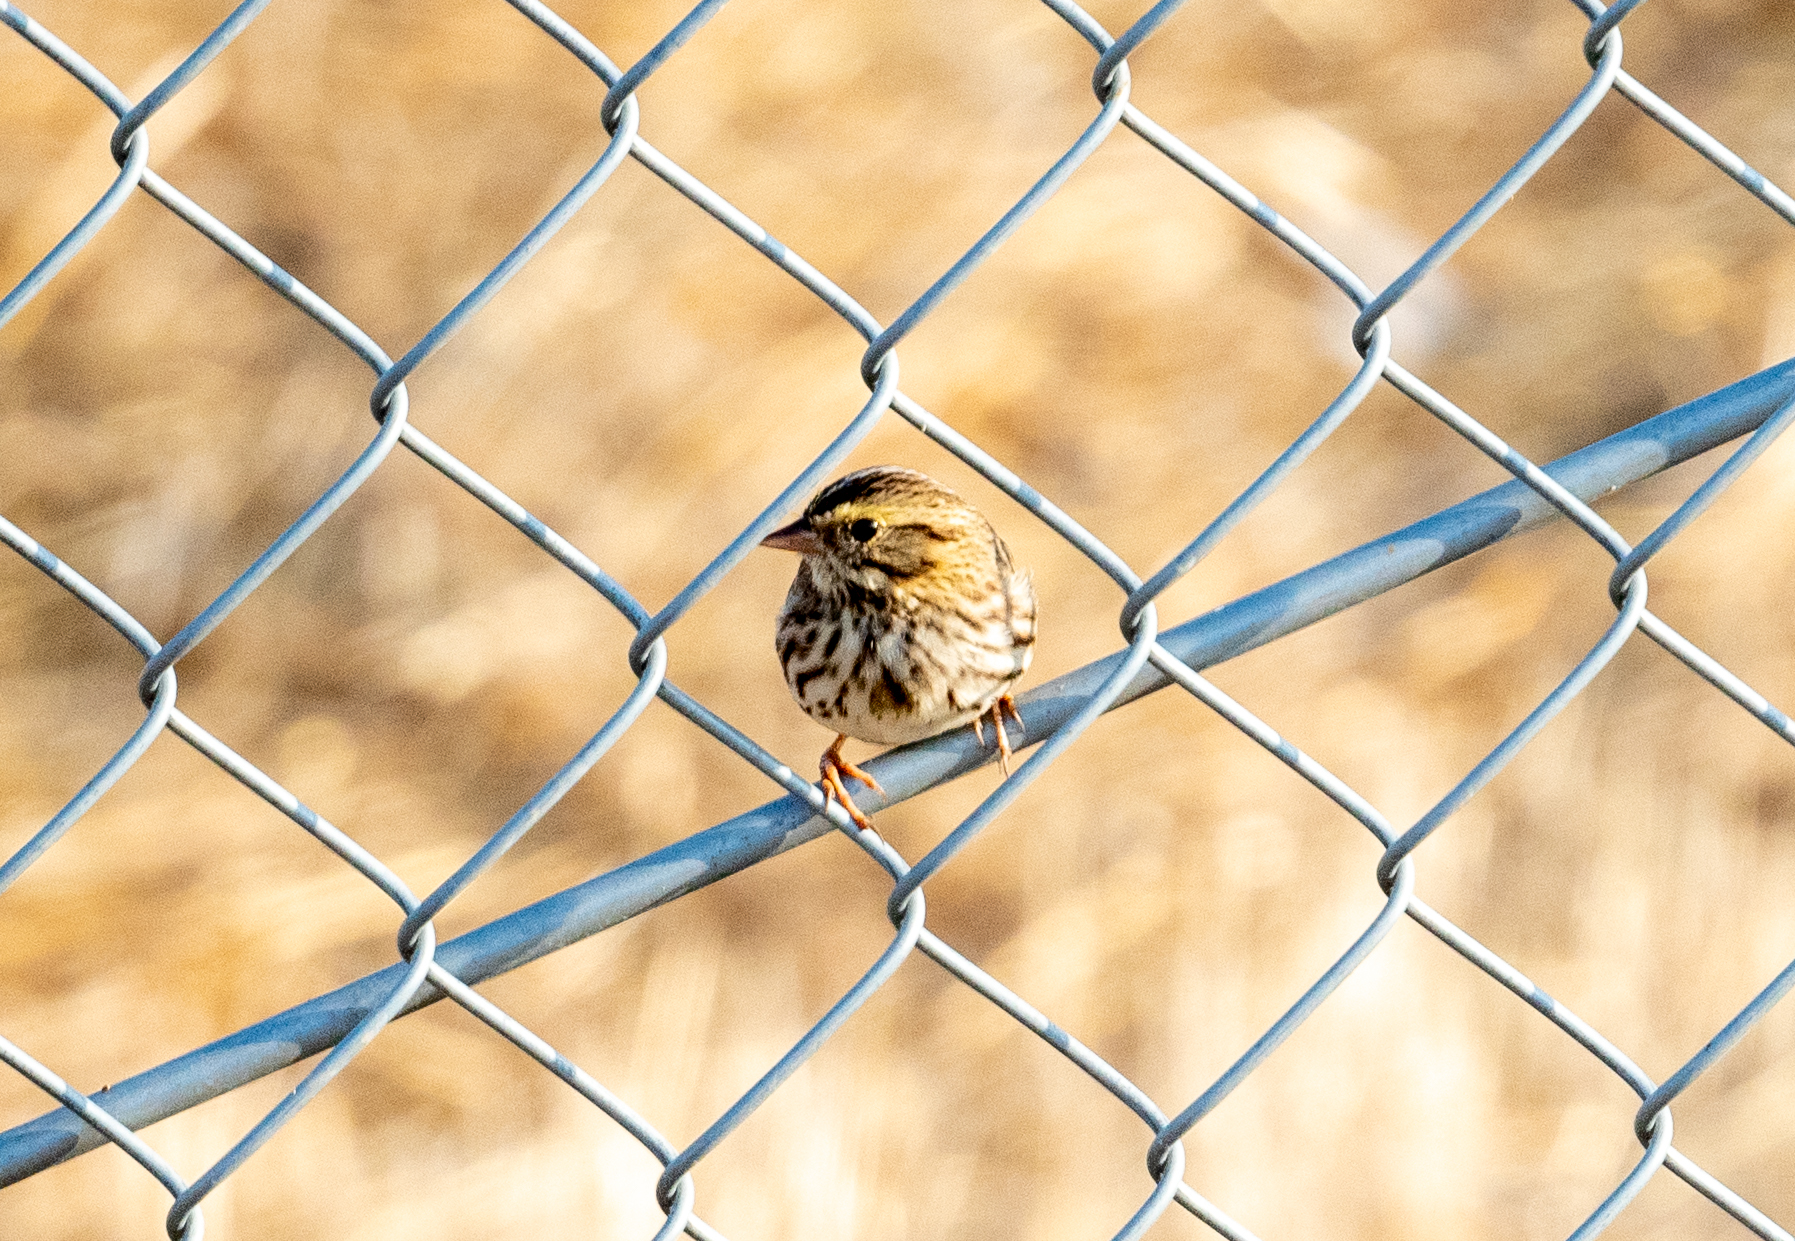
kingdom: Animalia
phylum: Chordata
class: Aves
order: Passeriformes
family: Passerellidae
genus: Passerculus
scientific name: Passerculus sandwichensis
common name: Savannah sparrow
